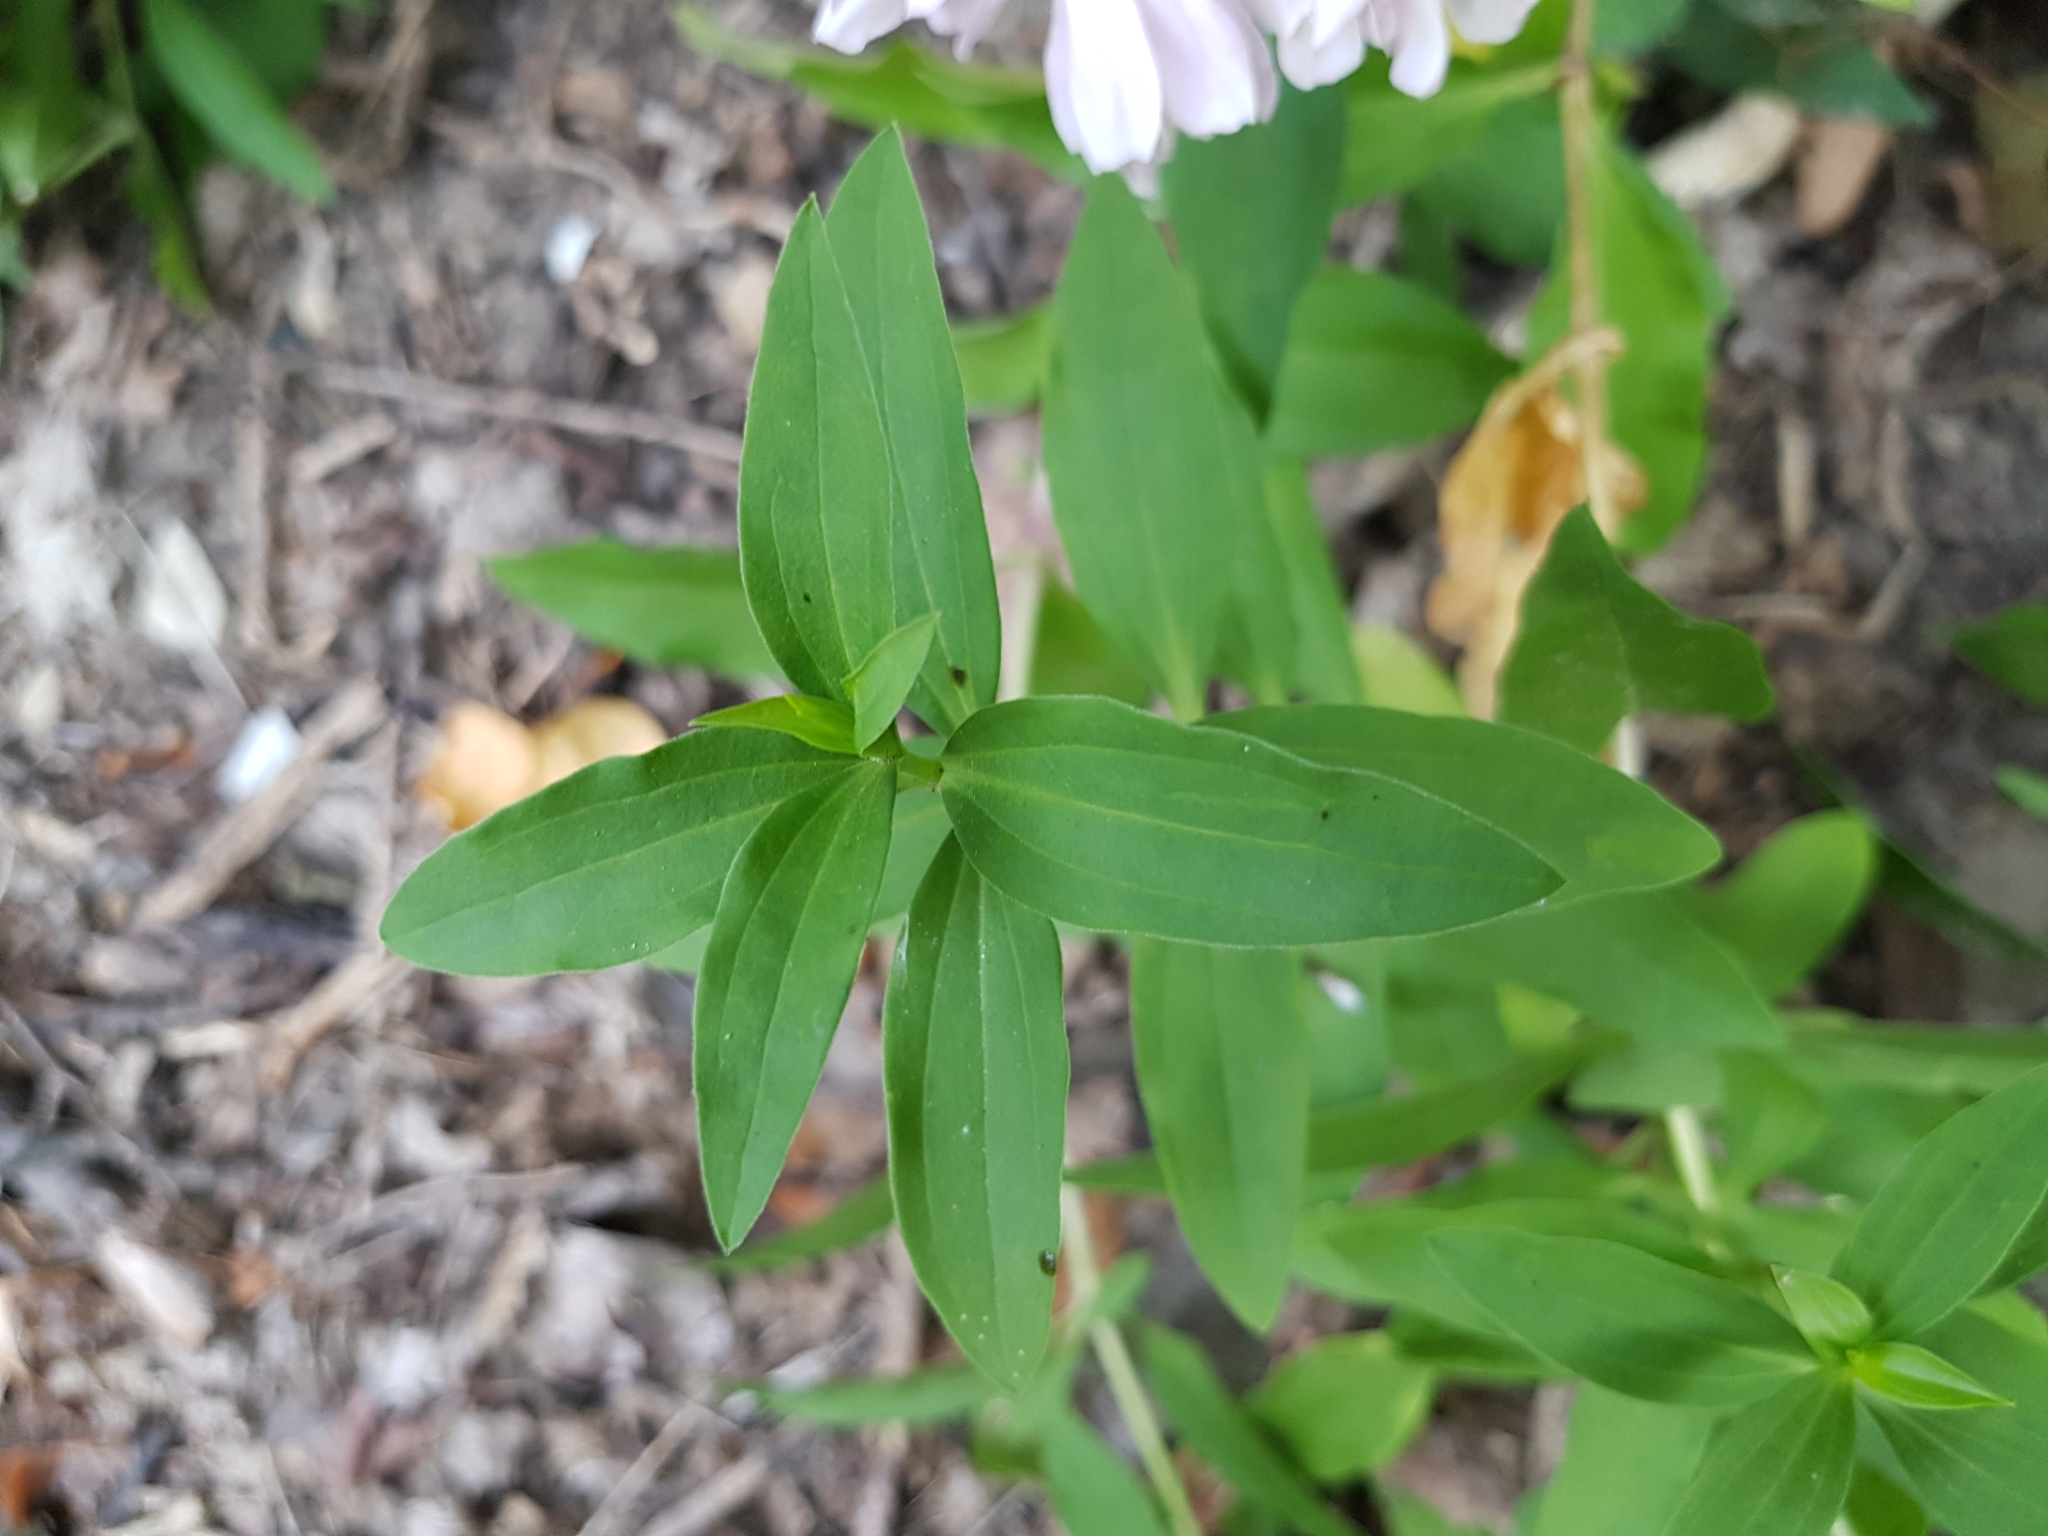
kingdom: Plantae
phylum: Tracheophyta
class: Magnoliopsida
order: Caryophyllales
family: Caryophyllaceae
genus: Saponaria
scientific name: Saponaria officinalis
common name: Soapwort
